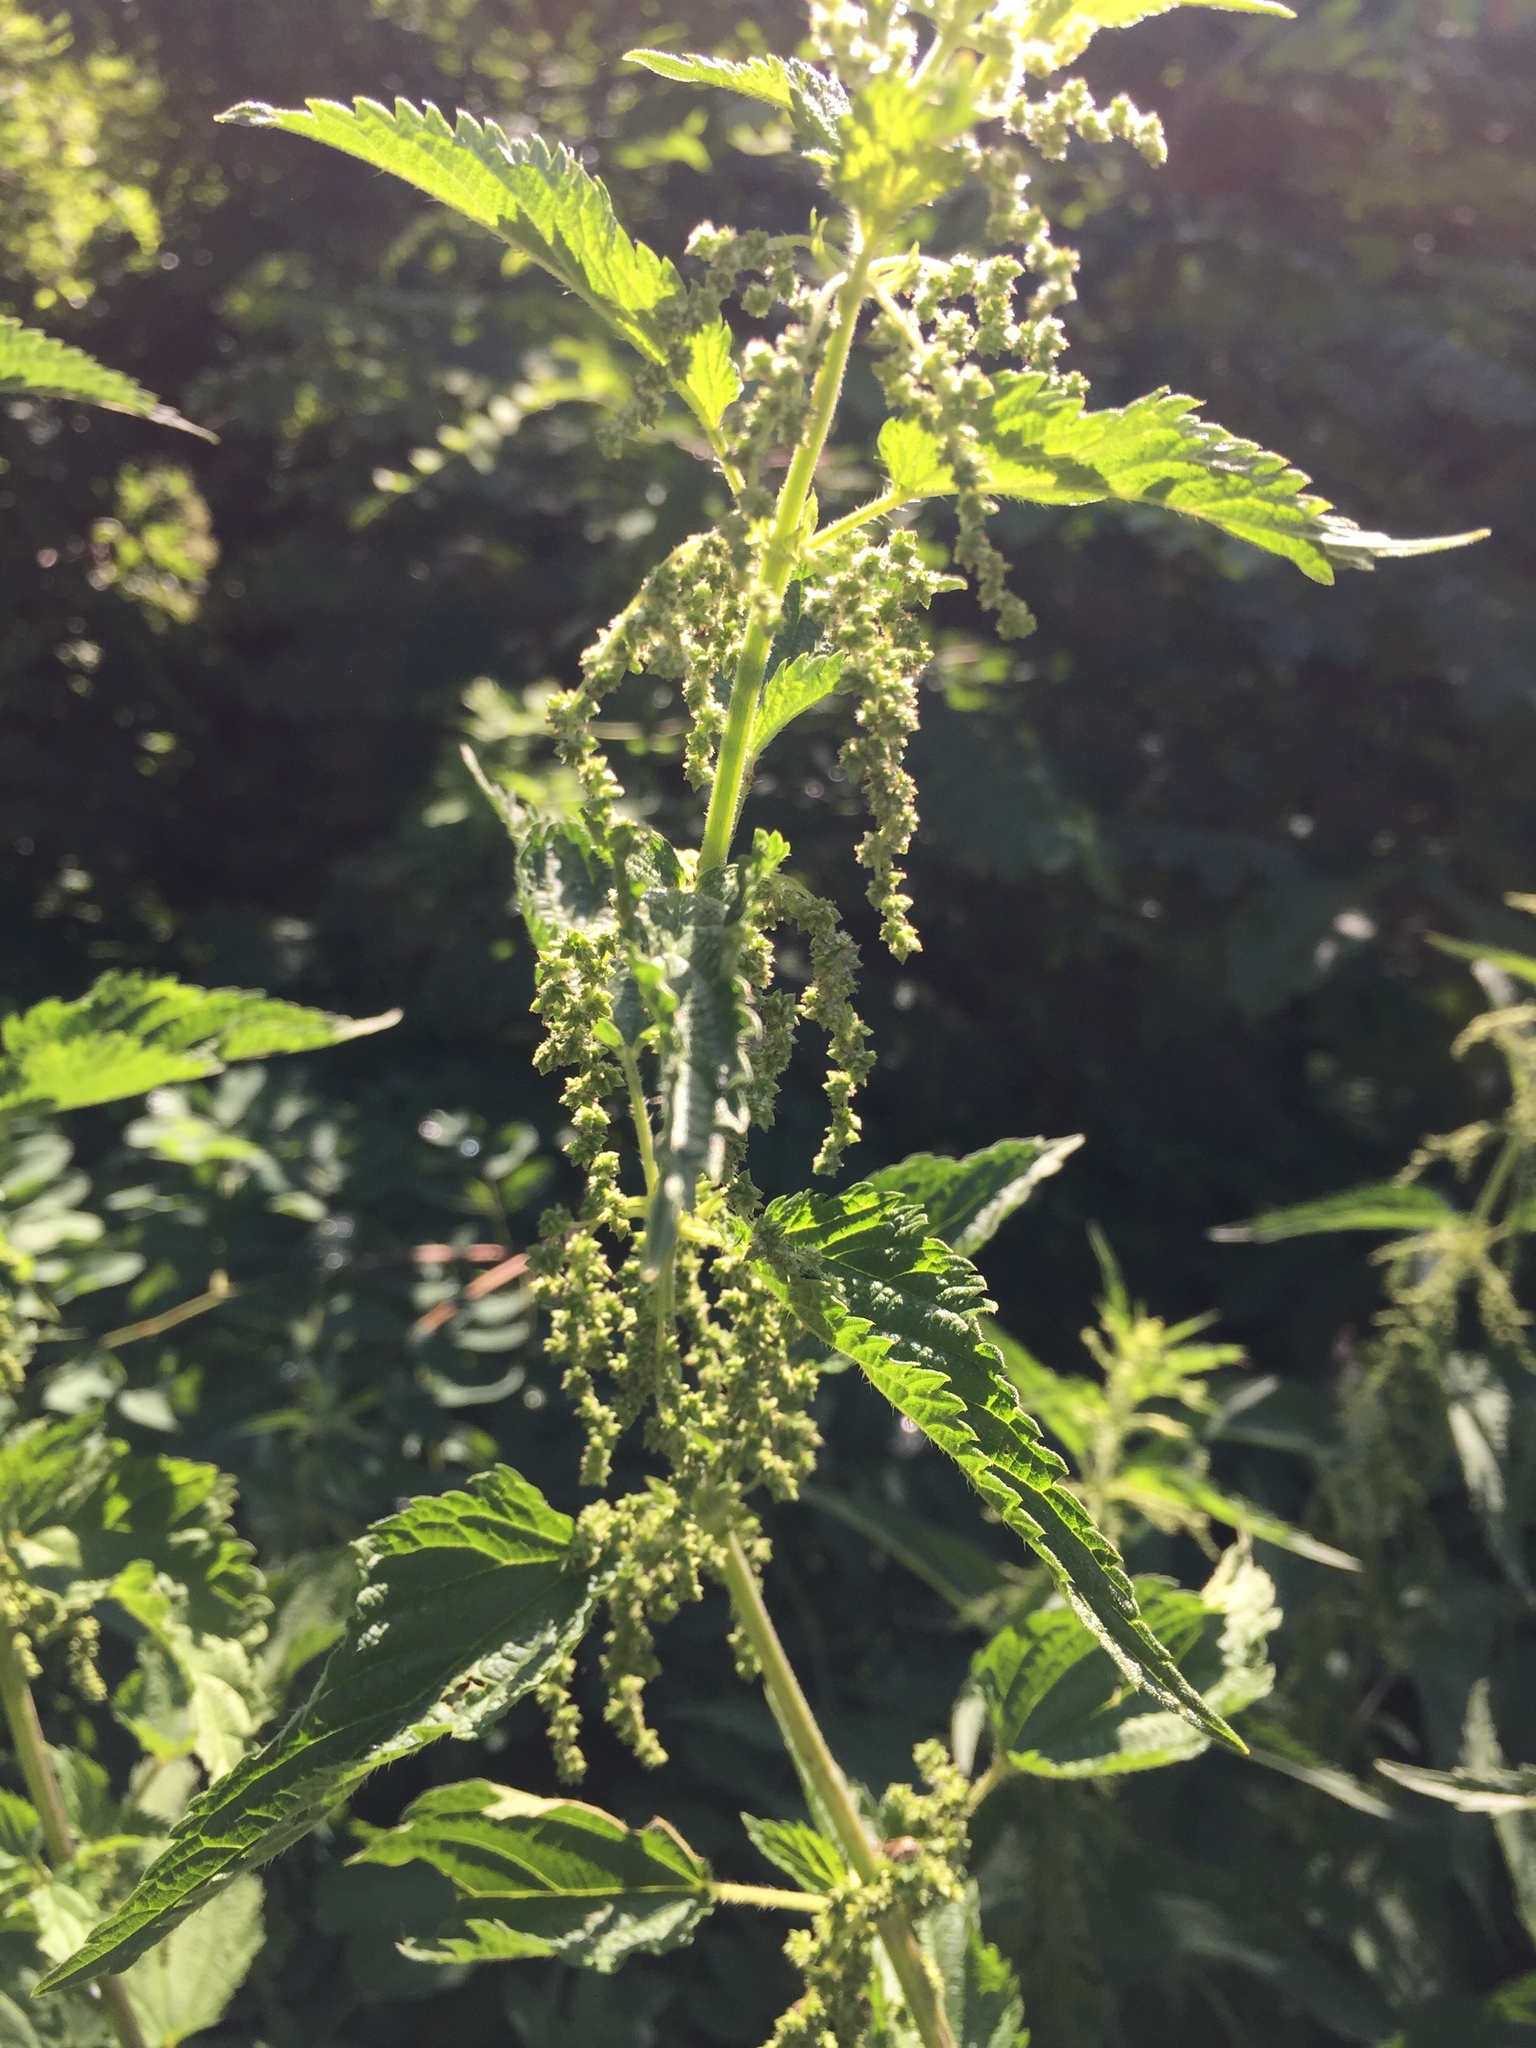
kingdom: Plantae
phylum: Tracheophyta
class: Magnoliopsida
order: Rosales
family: Urticaceae
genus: Urtica
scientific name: Urtica dioica
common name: Common nettle
